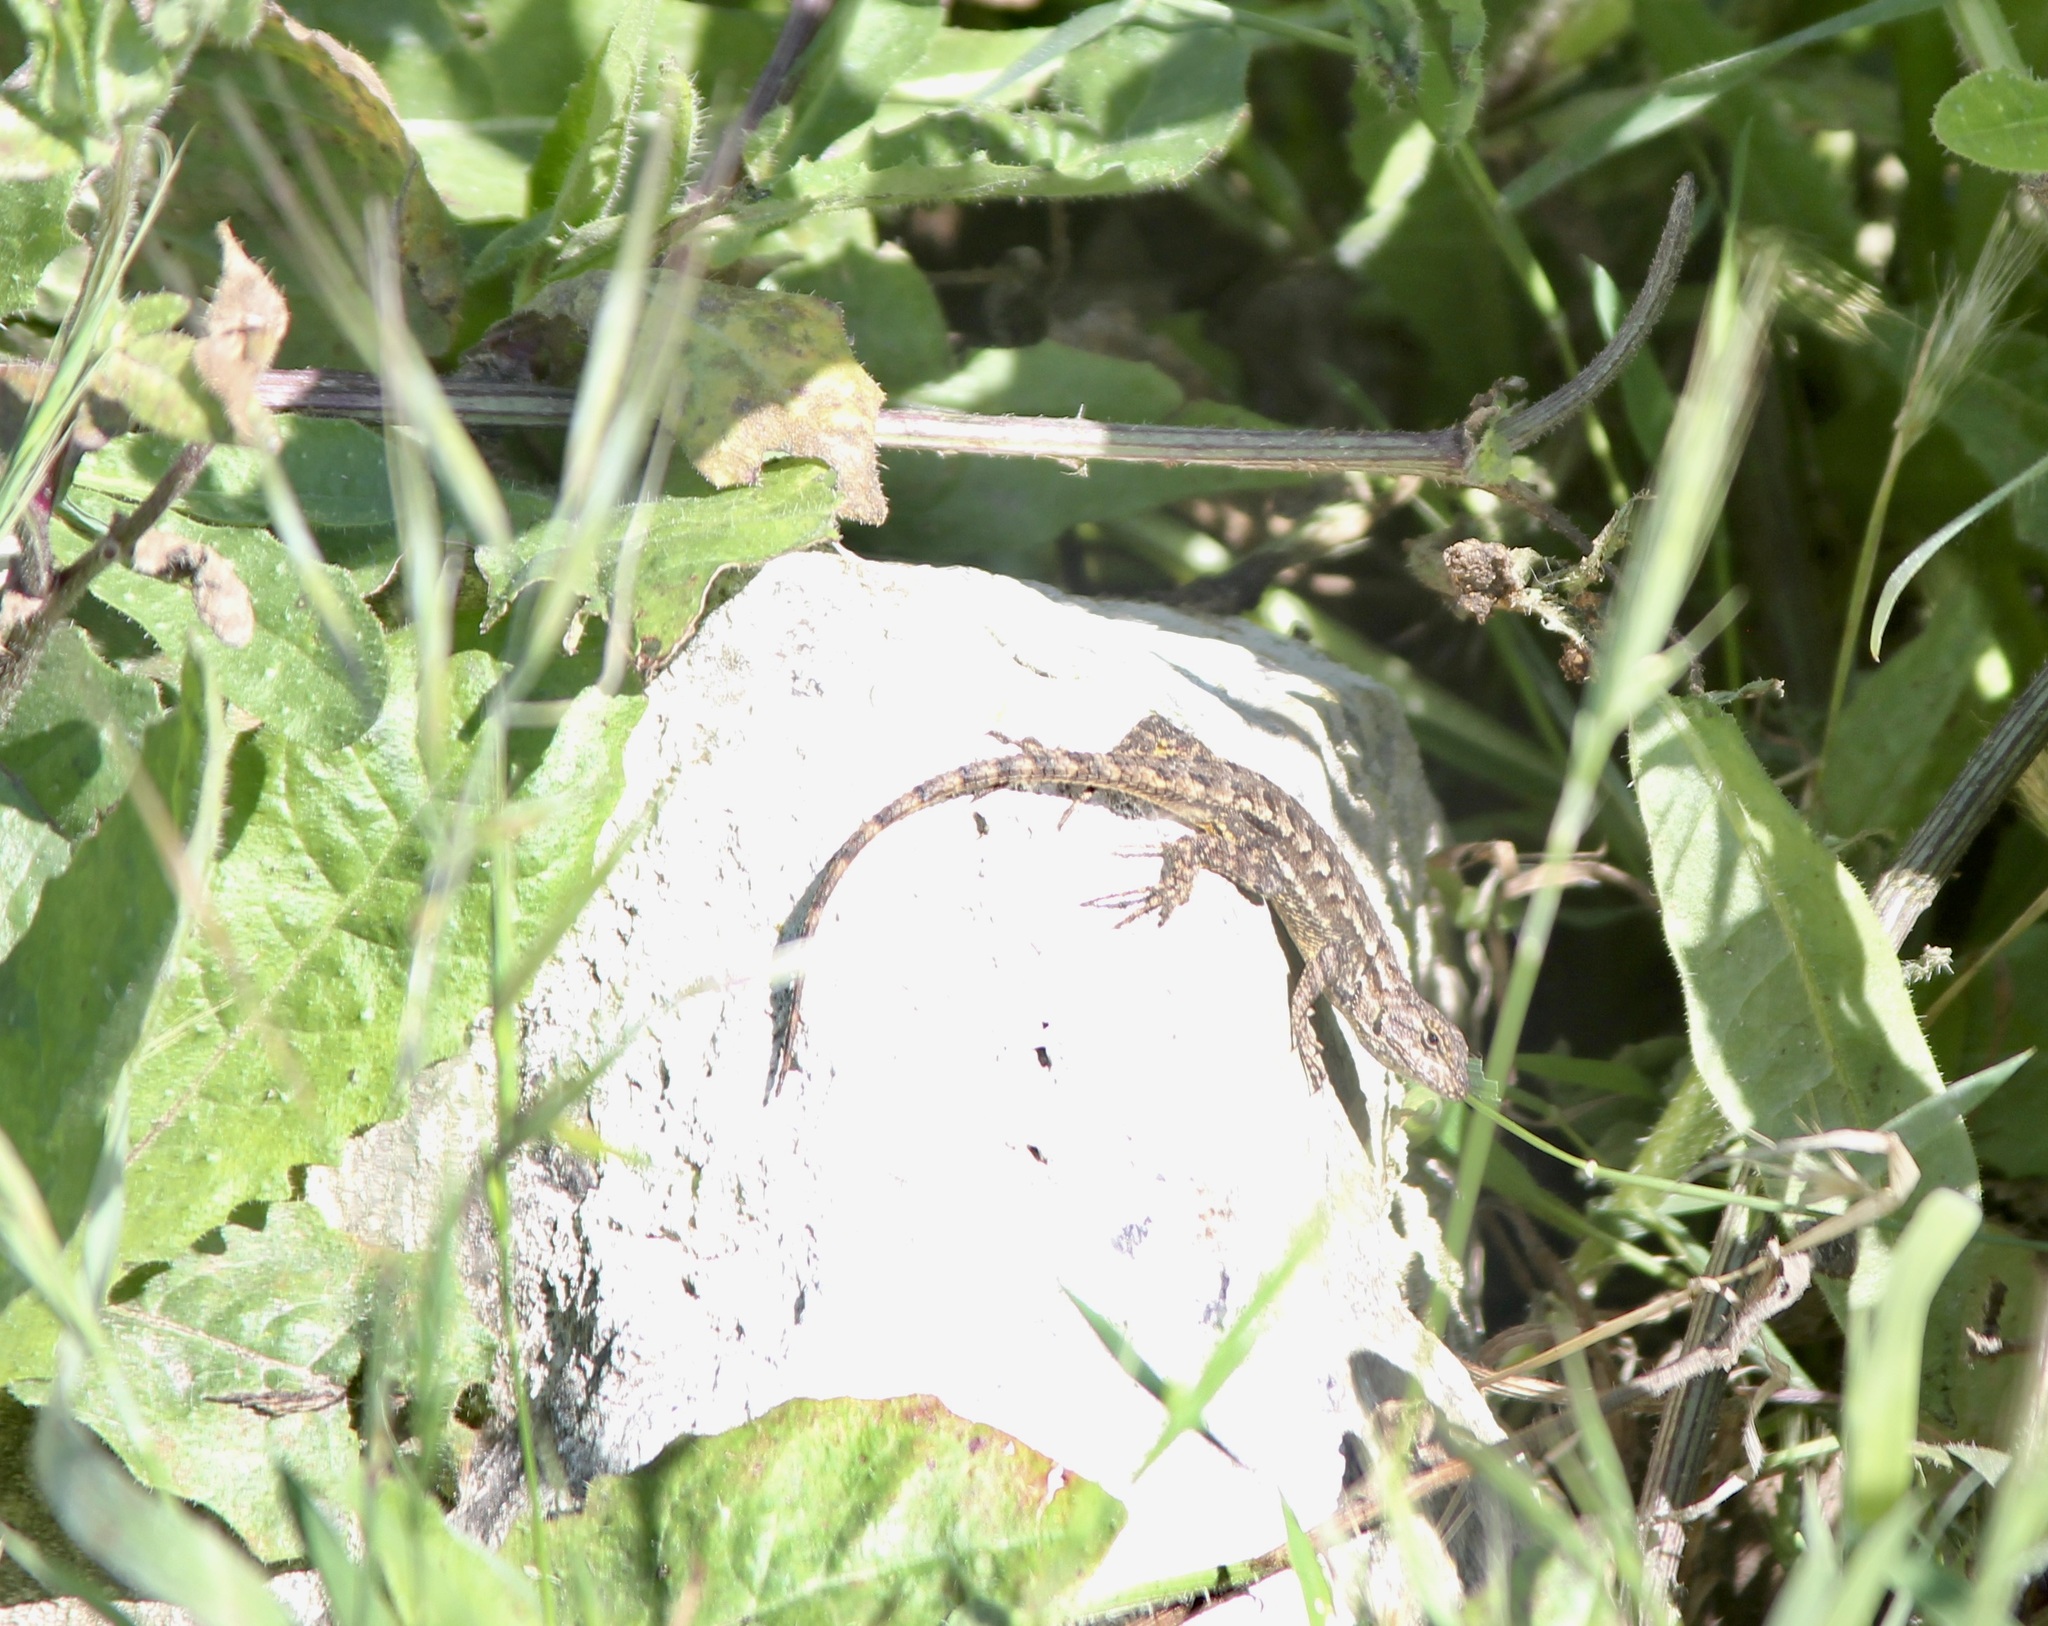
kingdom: Animalia
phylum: Chordata
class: Squamata
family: Phrynosomatidae
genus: Sceloporus
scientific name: Sceloporus occidentalis
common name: Western fence lizard
